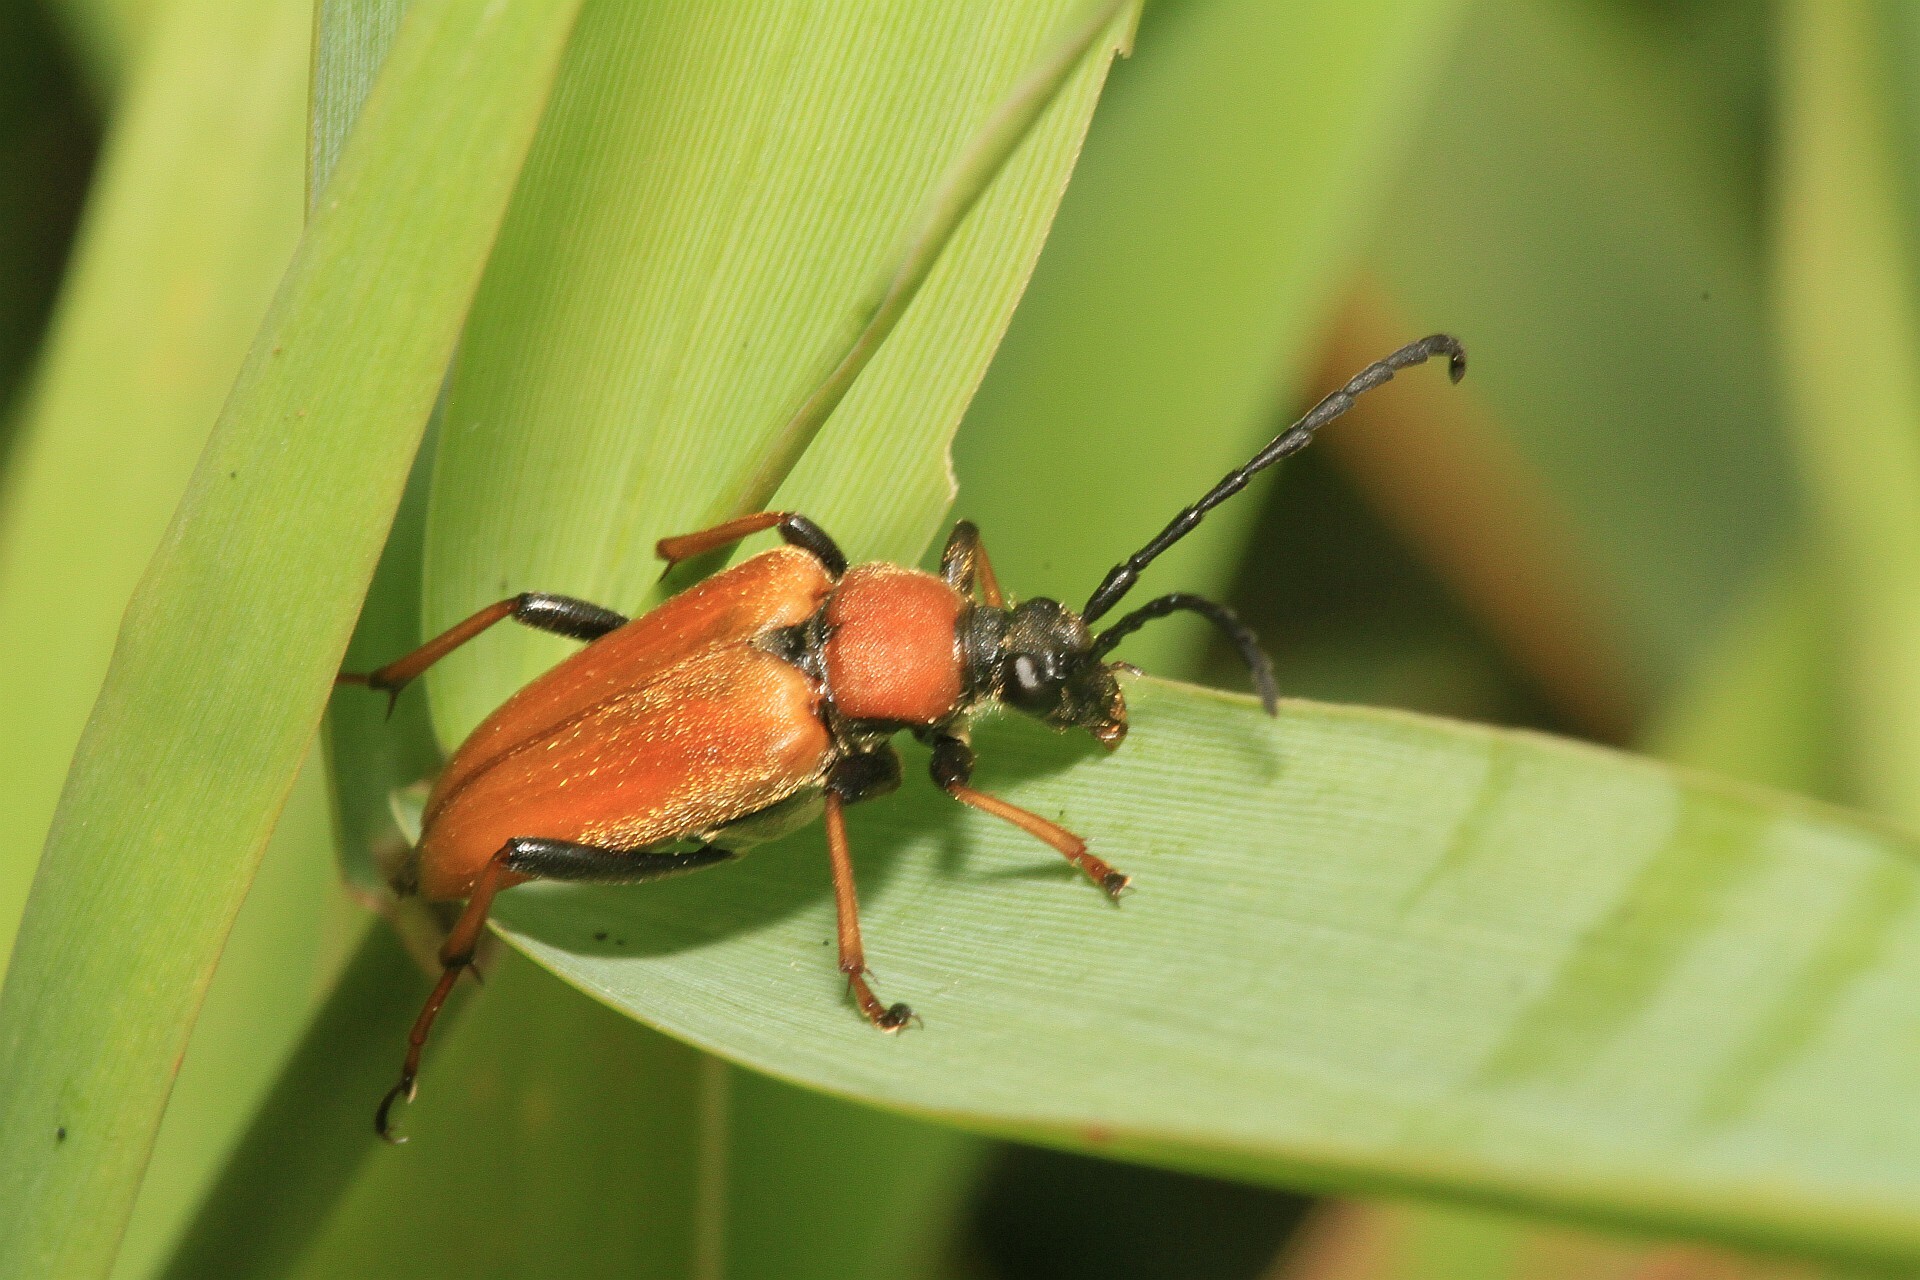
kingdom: Animalia
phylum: Arthropoda
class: Insecta
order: Coleoptera
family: Cerambycidae
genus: Stictoleptura
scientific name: Stictoleptura rubra
